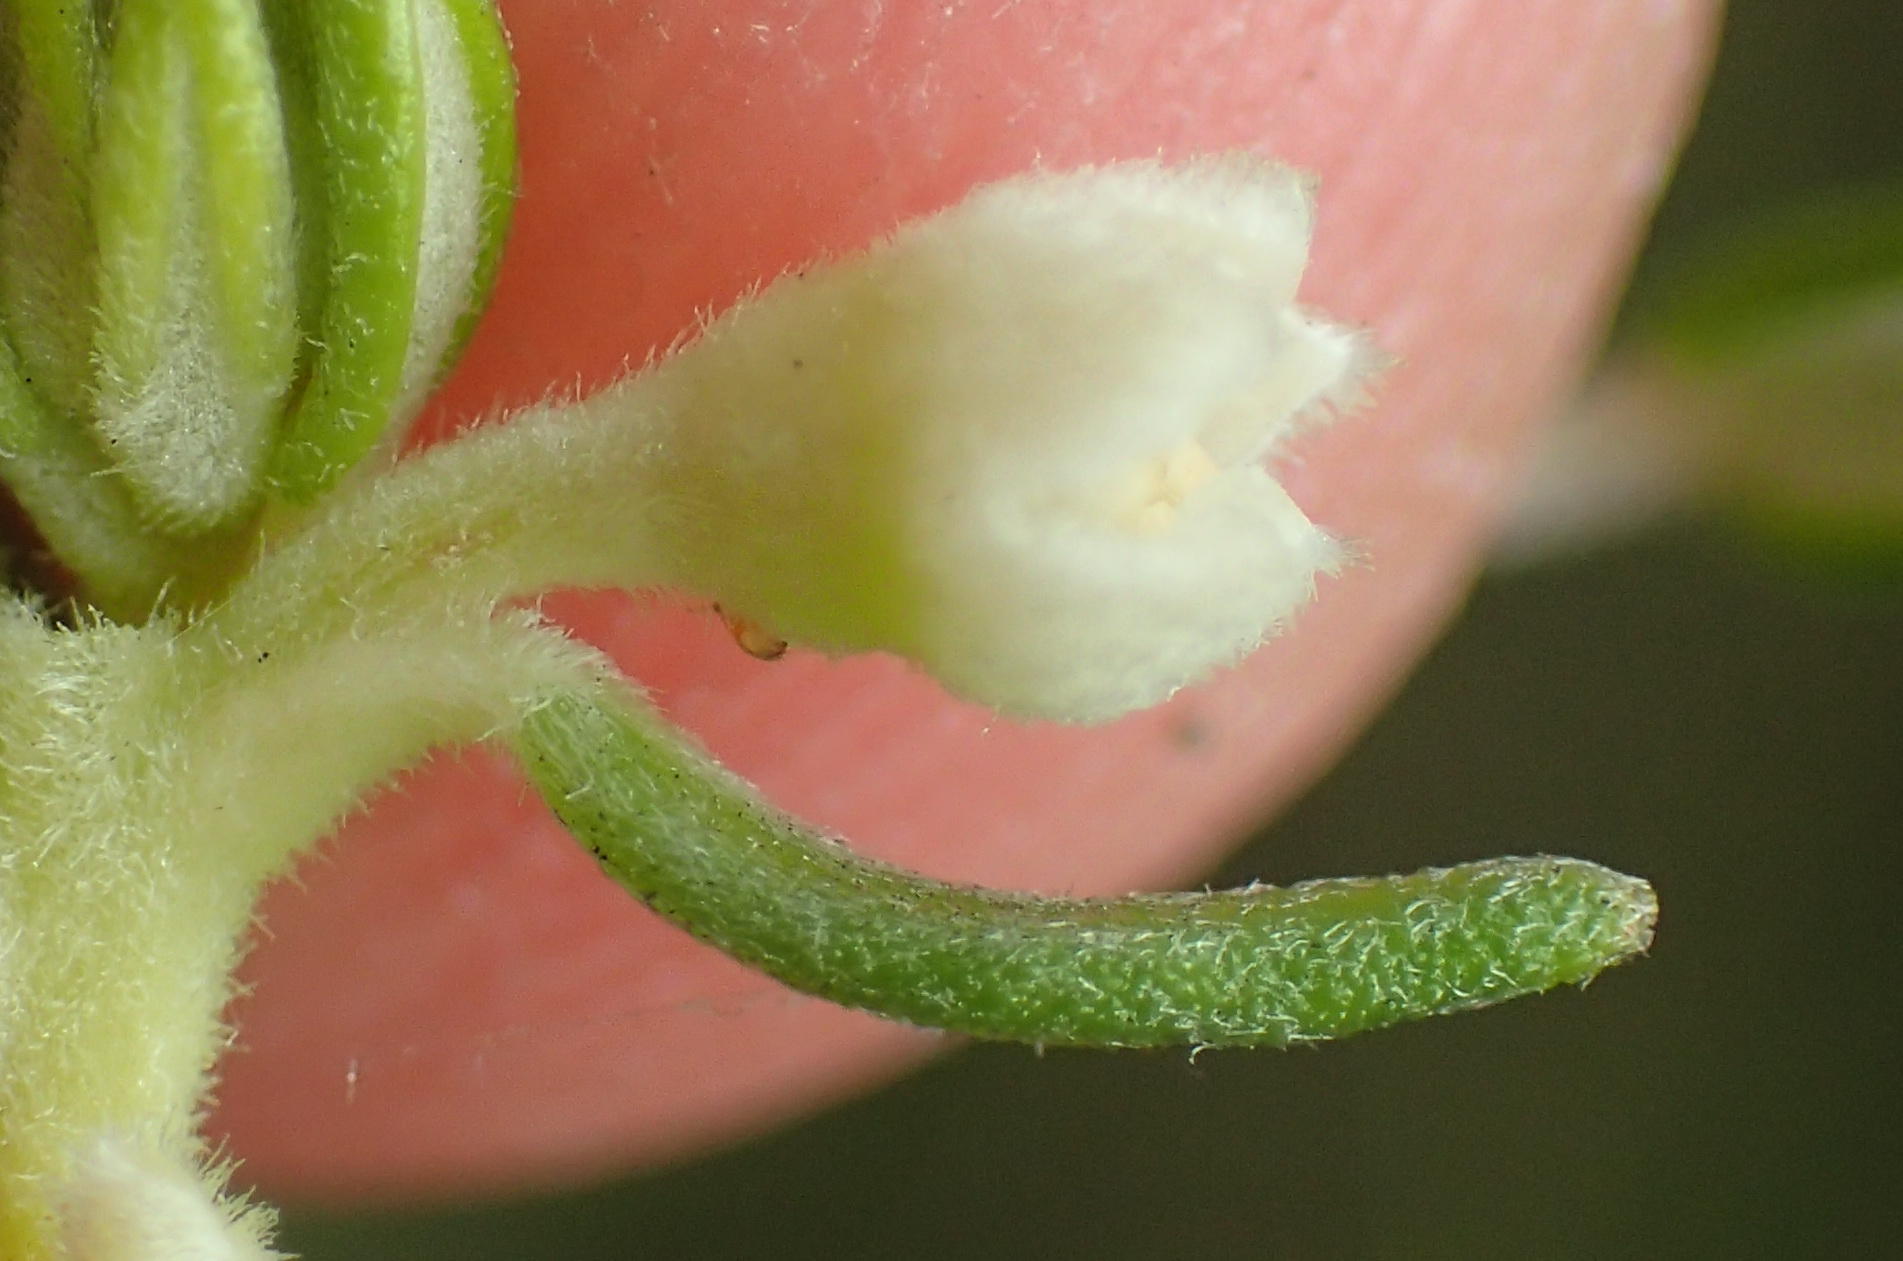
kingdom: Plantae
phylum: Tracheophyta
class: Magnoliopsida
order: Rosales
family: Rhamnaceae
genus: Phylica
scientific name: Phylica axillaris
